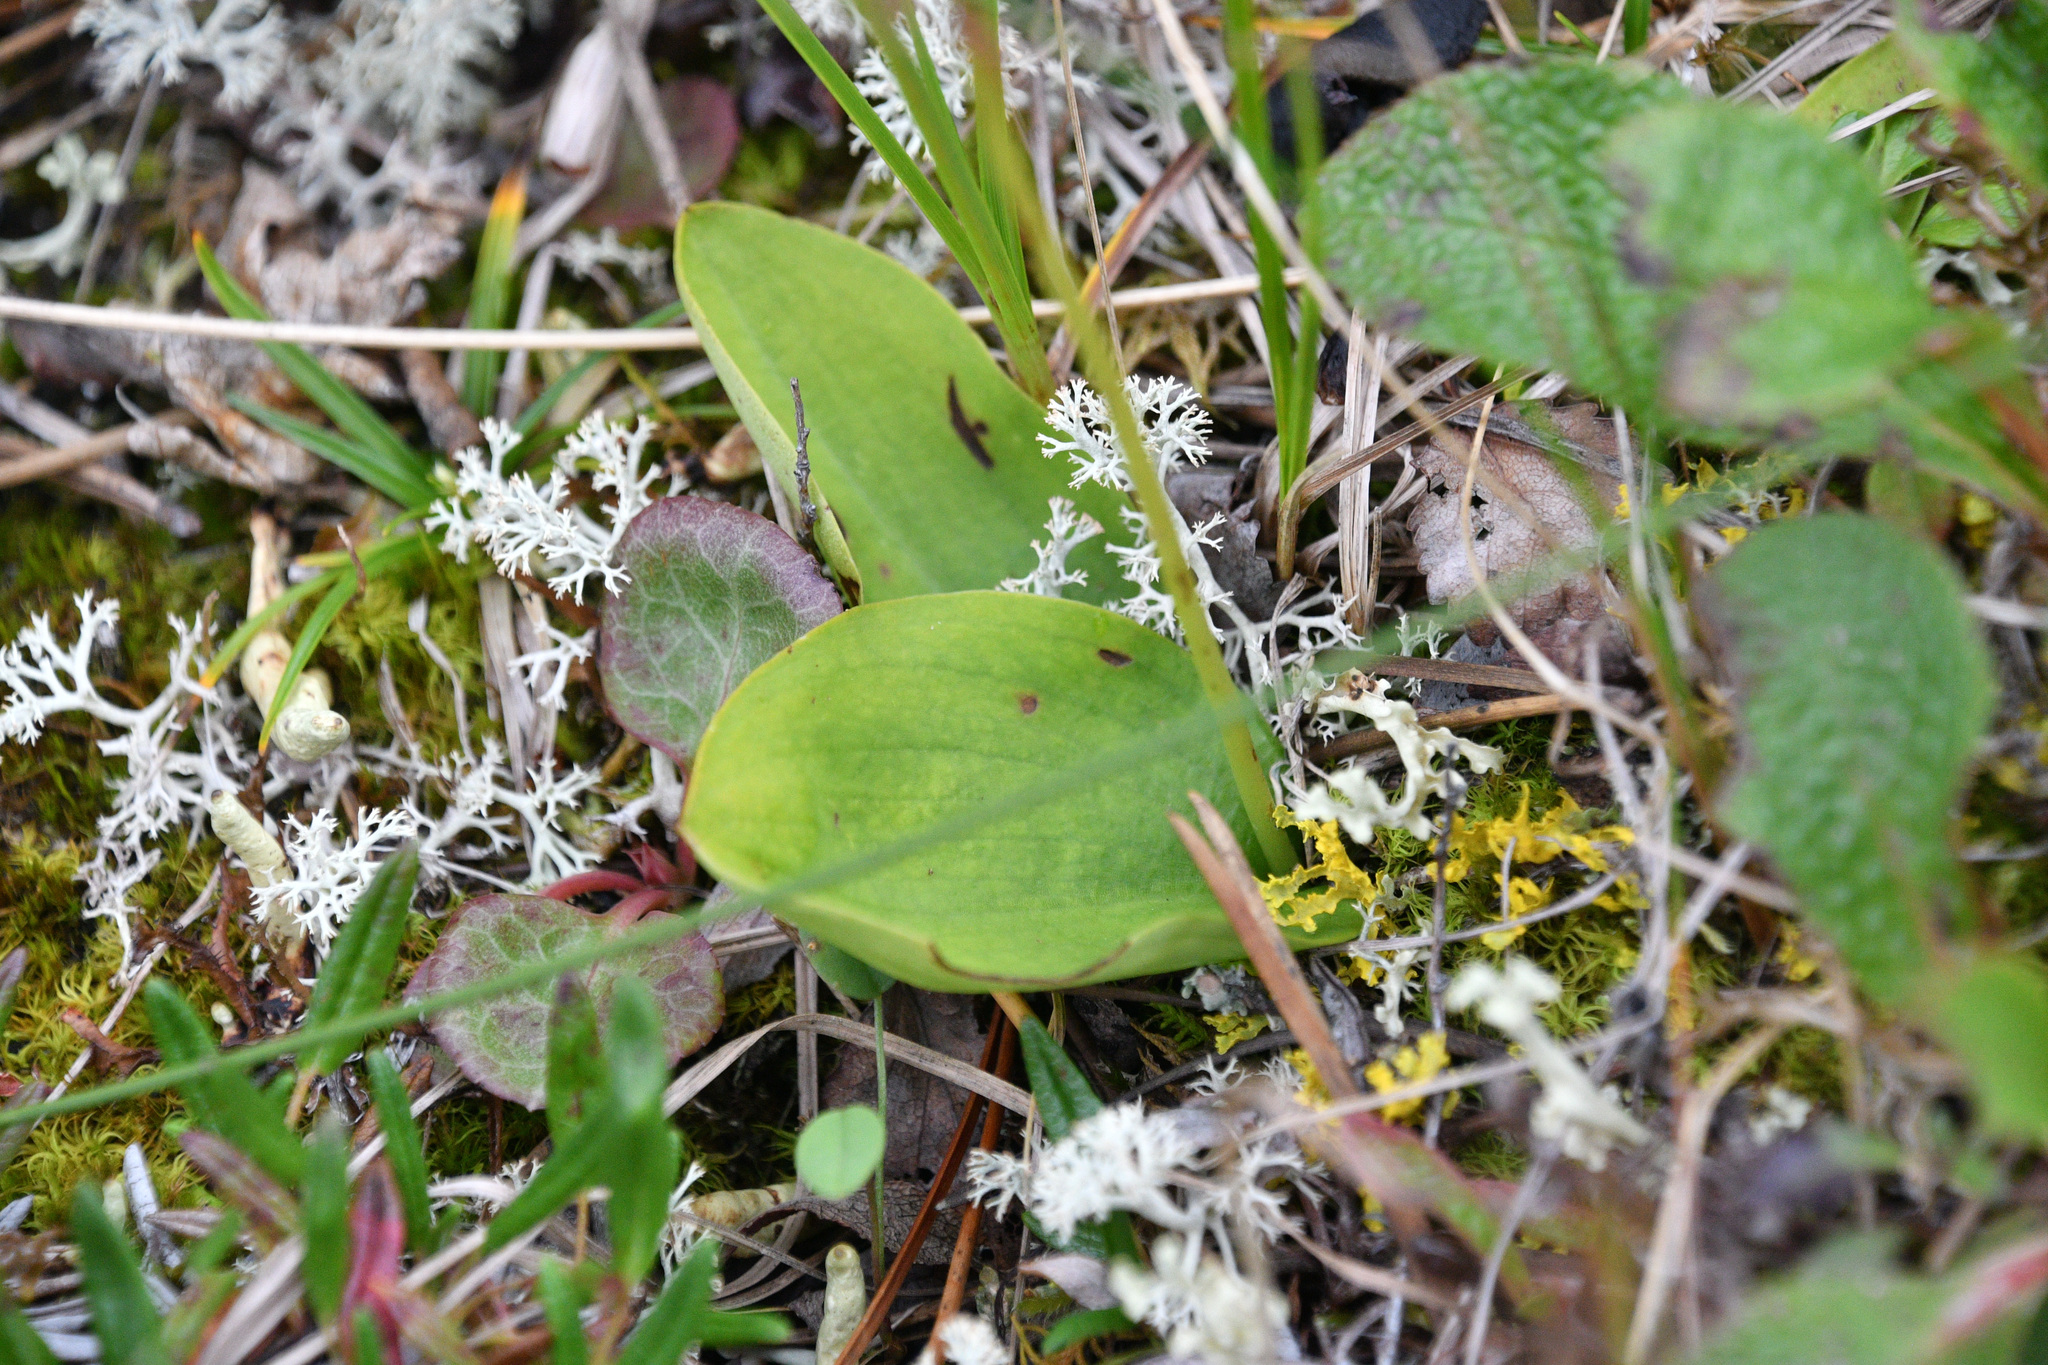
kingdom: Plantae
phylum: Tracheophyta
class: Liliopsida
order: Asparagales
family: Orchidaceae
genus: Galearis
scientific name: Galearis rotundifolia
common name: One-leaved orchis
